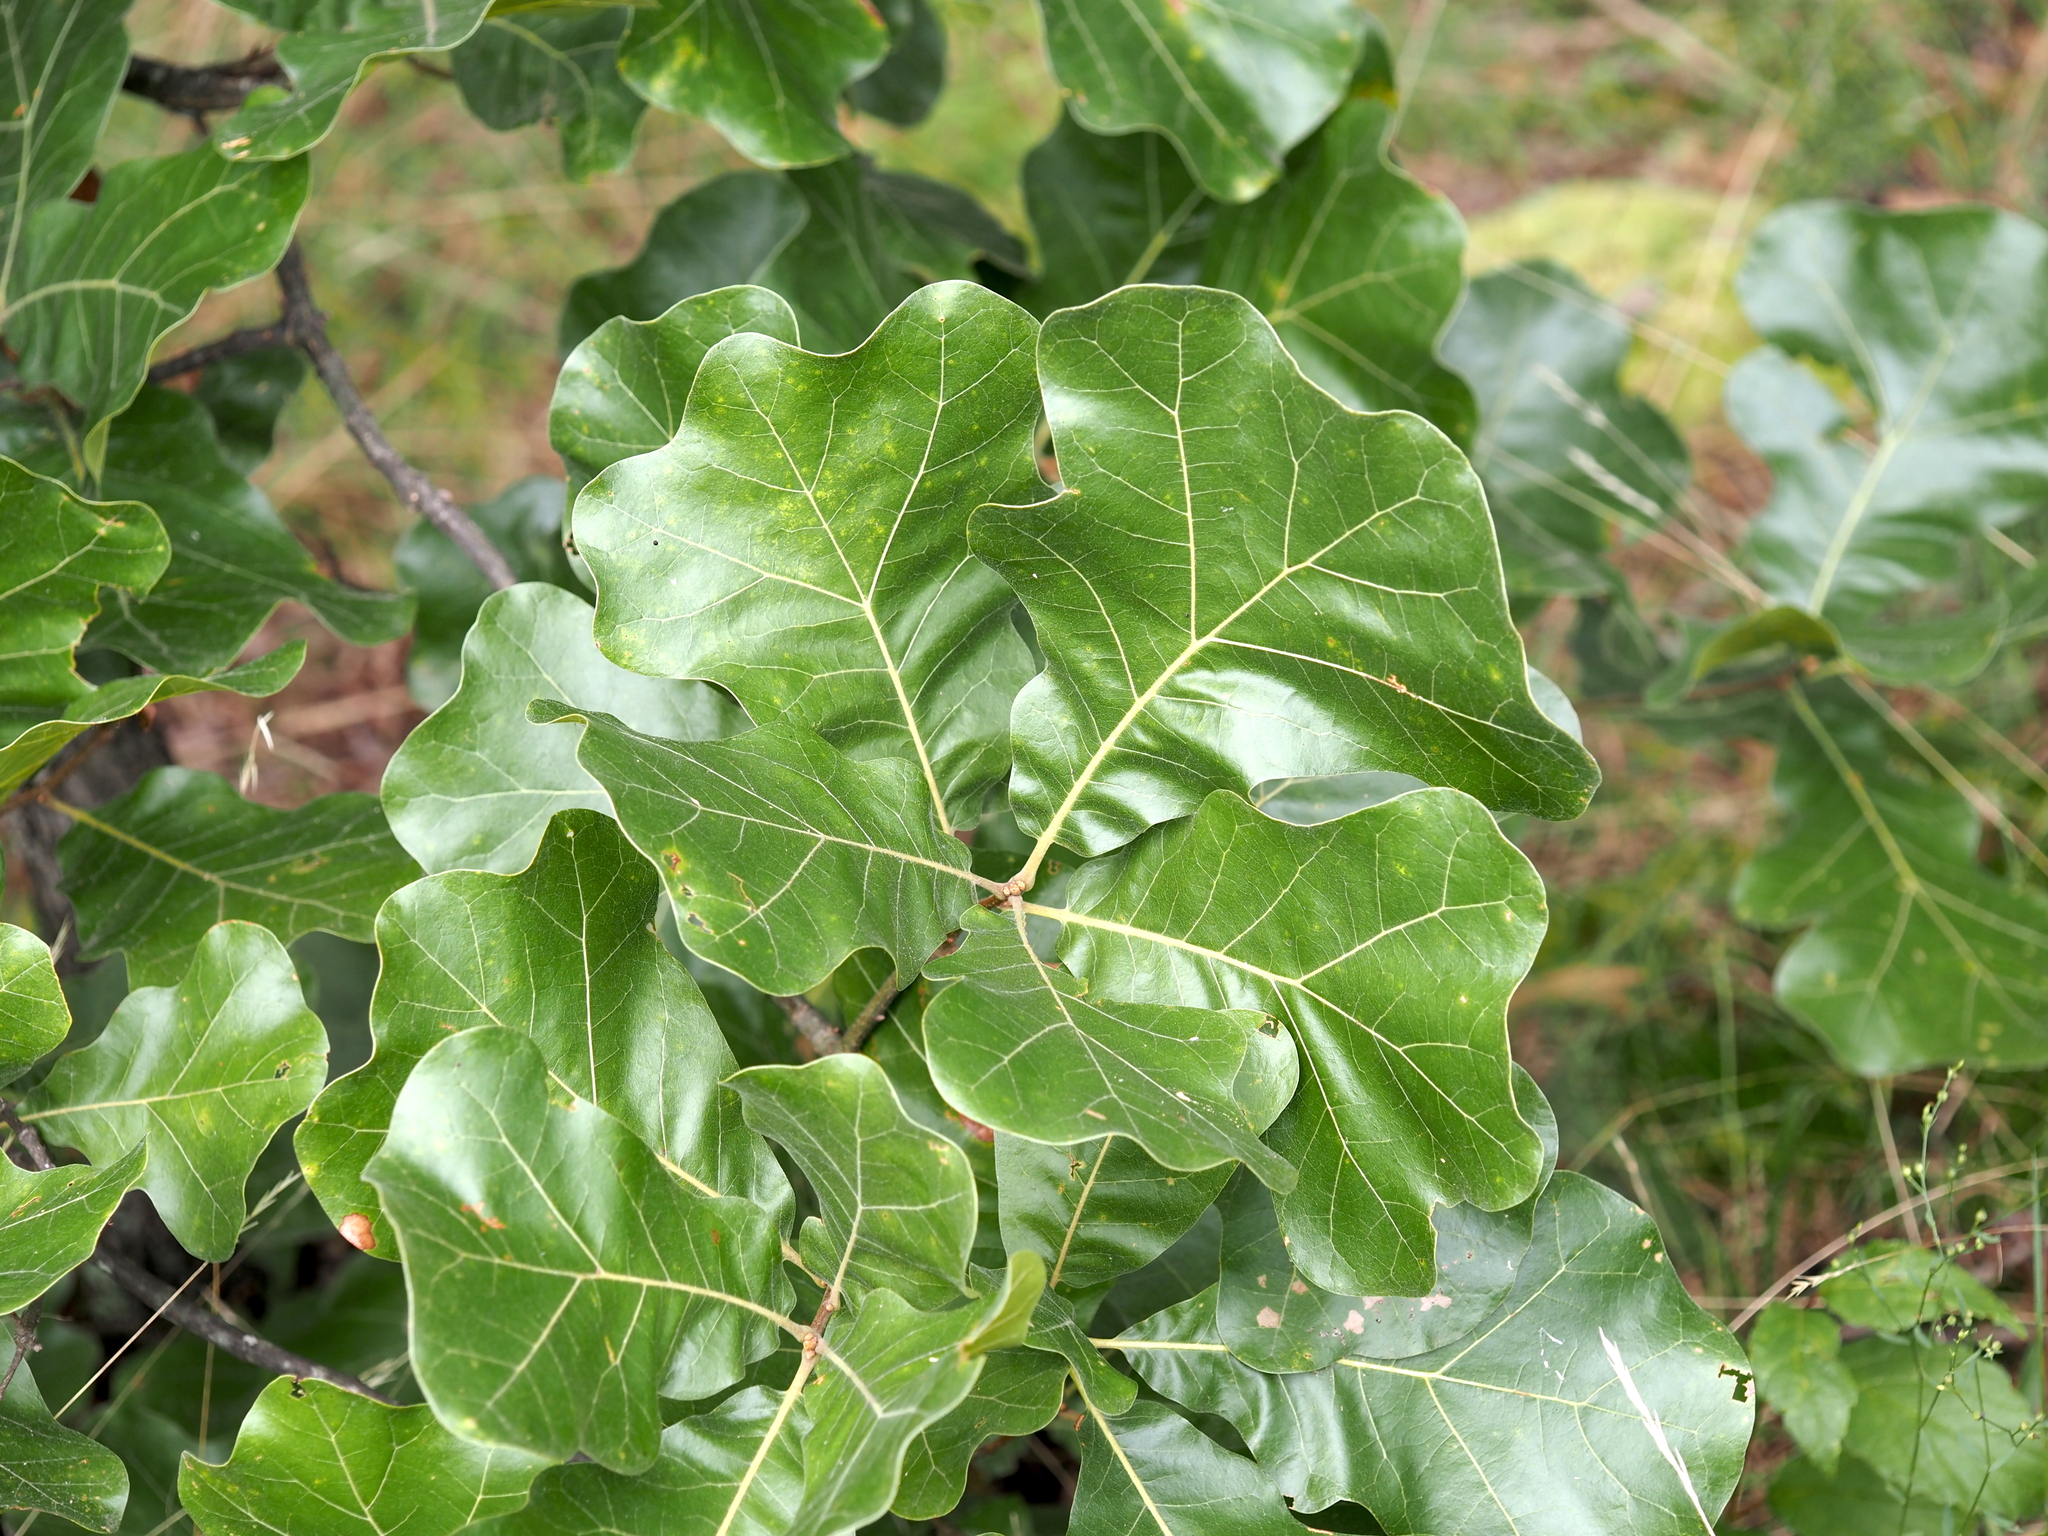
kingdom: Plantae
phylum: Tracheophyta
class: Magnoliopsida
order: Fagales
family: Fagaceae
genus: Quercus
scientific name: Quercus marilandica
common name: Blackjack oak
